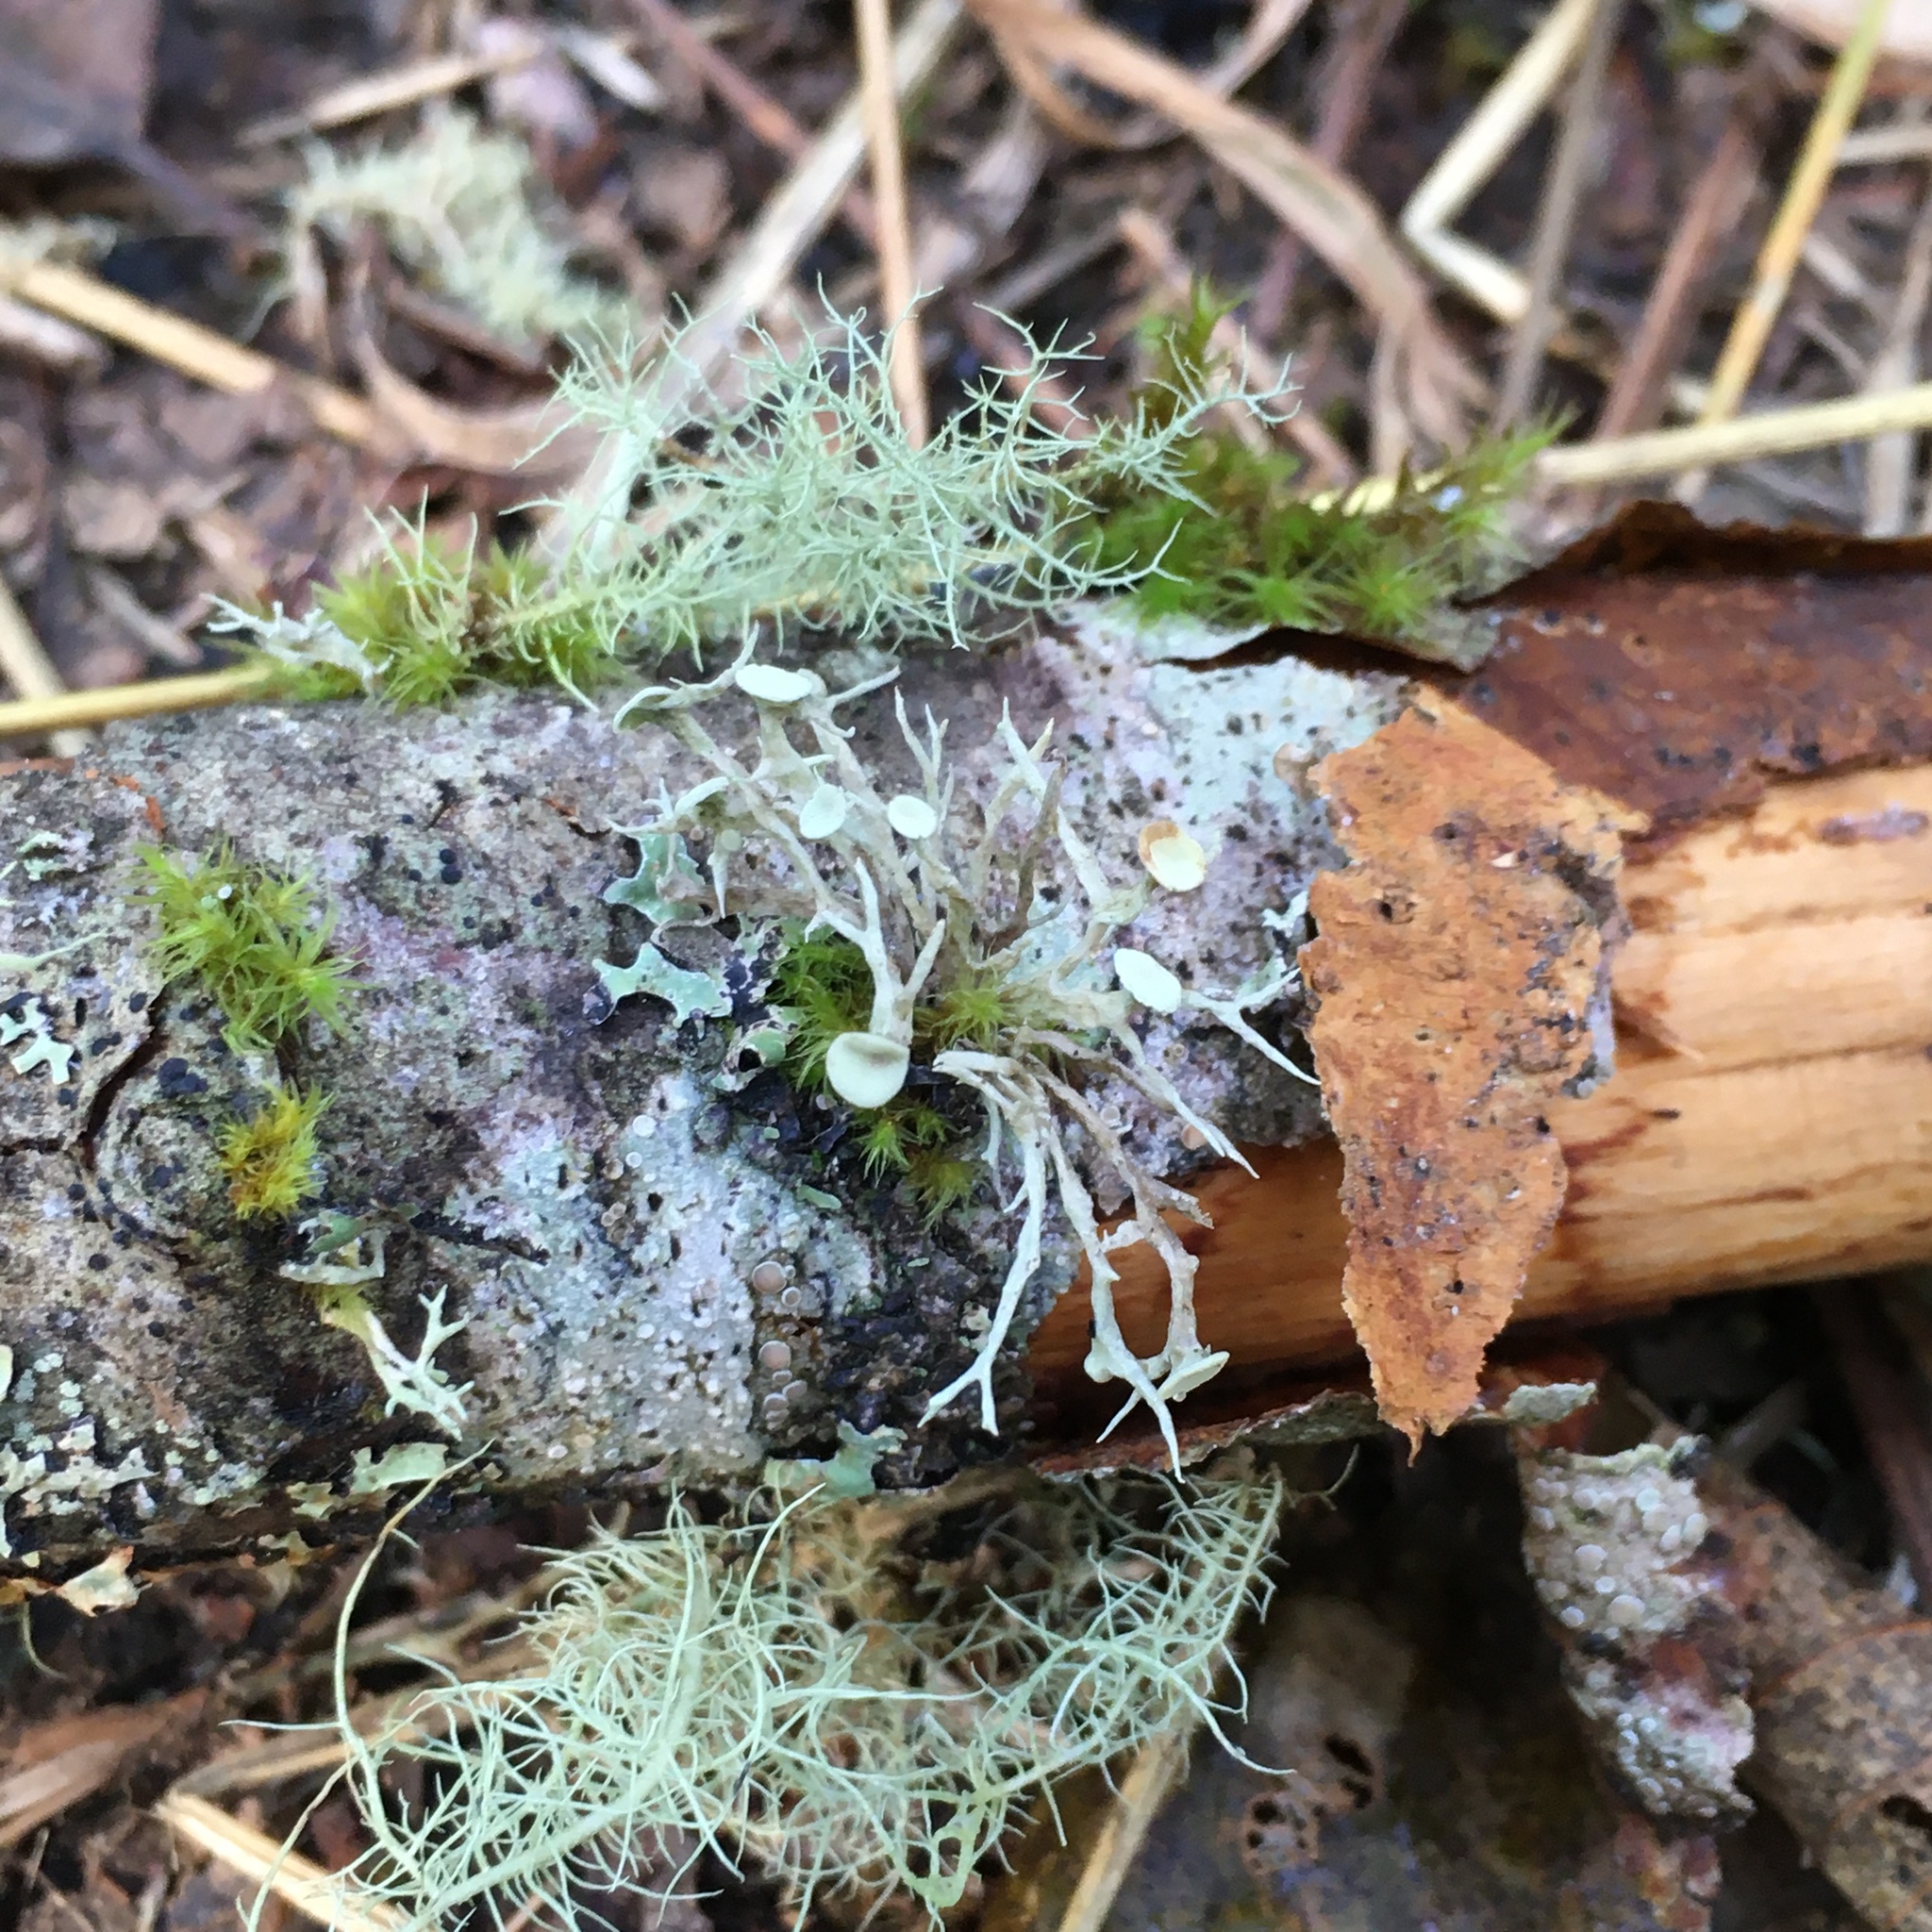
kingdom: Fungi
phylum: Ascomycota
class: Lecanoromycetes
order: Lecanorales
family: Ramalinaceae
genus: Ramalina
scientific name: Ramalina dilacerata
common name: Punctured bushy lichen
